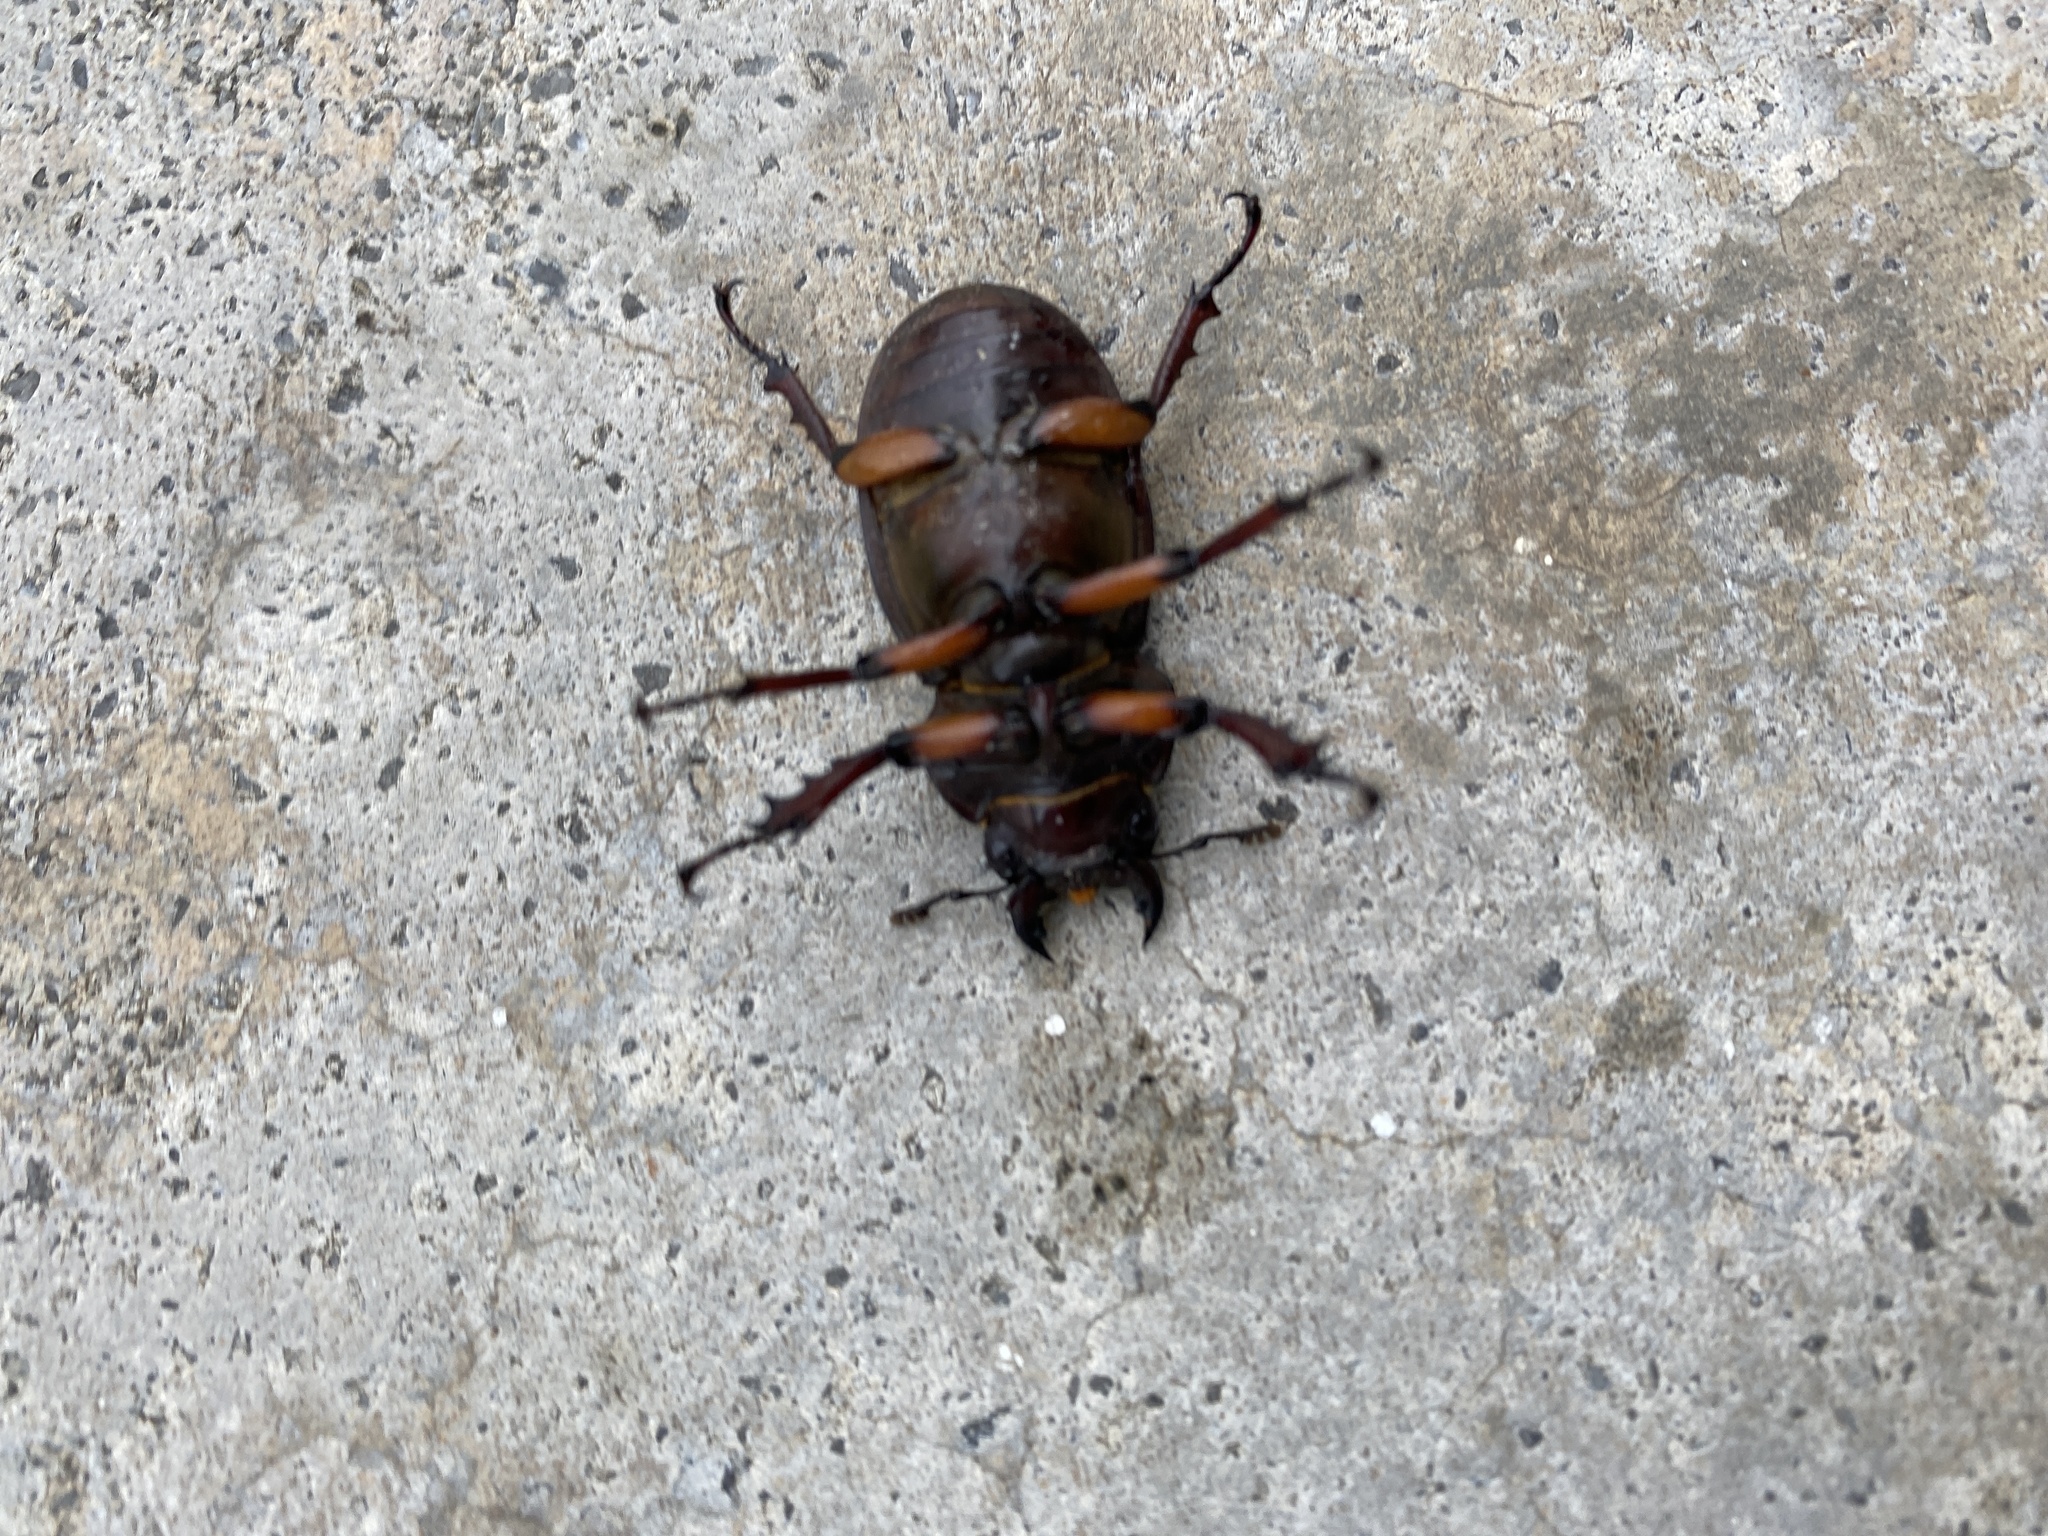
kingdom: Animalia
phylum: Arthropoda
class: Insecta
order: Coleoptera
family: Lucanidae
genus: Lucanus
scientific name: Lucanus capreolus
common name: Stag beetle
